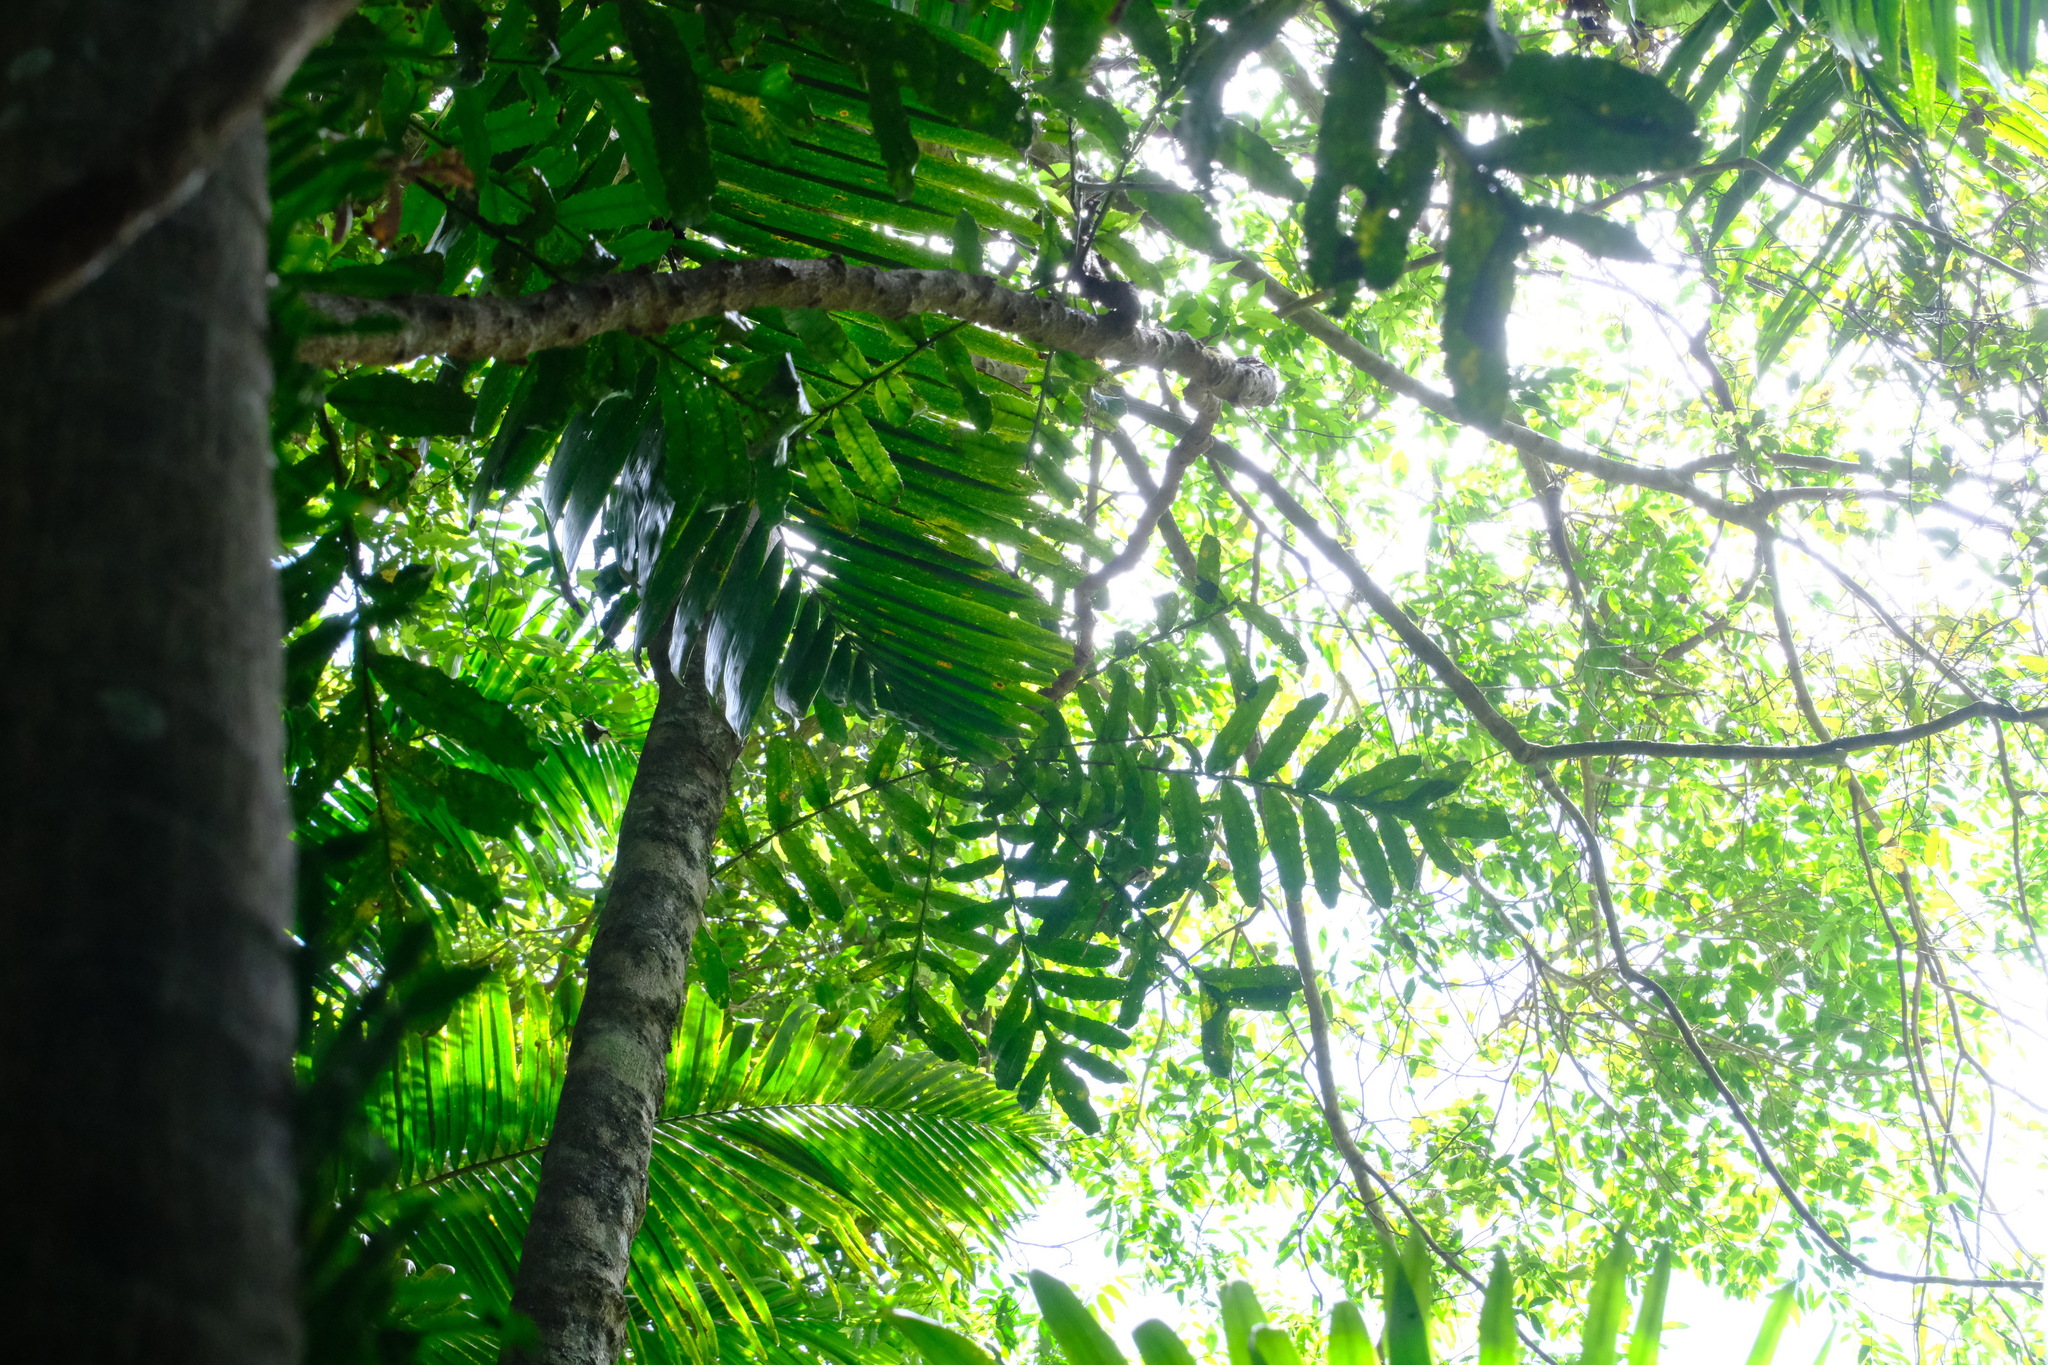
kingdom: Plantae
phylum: Tracheophyta
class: Magnoliopsida
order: Proteales
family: Proteaceae
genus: Hicksbeachia
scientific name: Hicksbeachia pinnatifolia
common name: Beefnut
